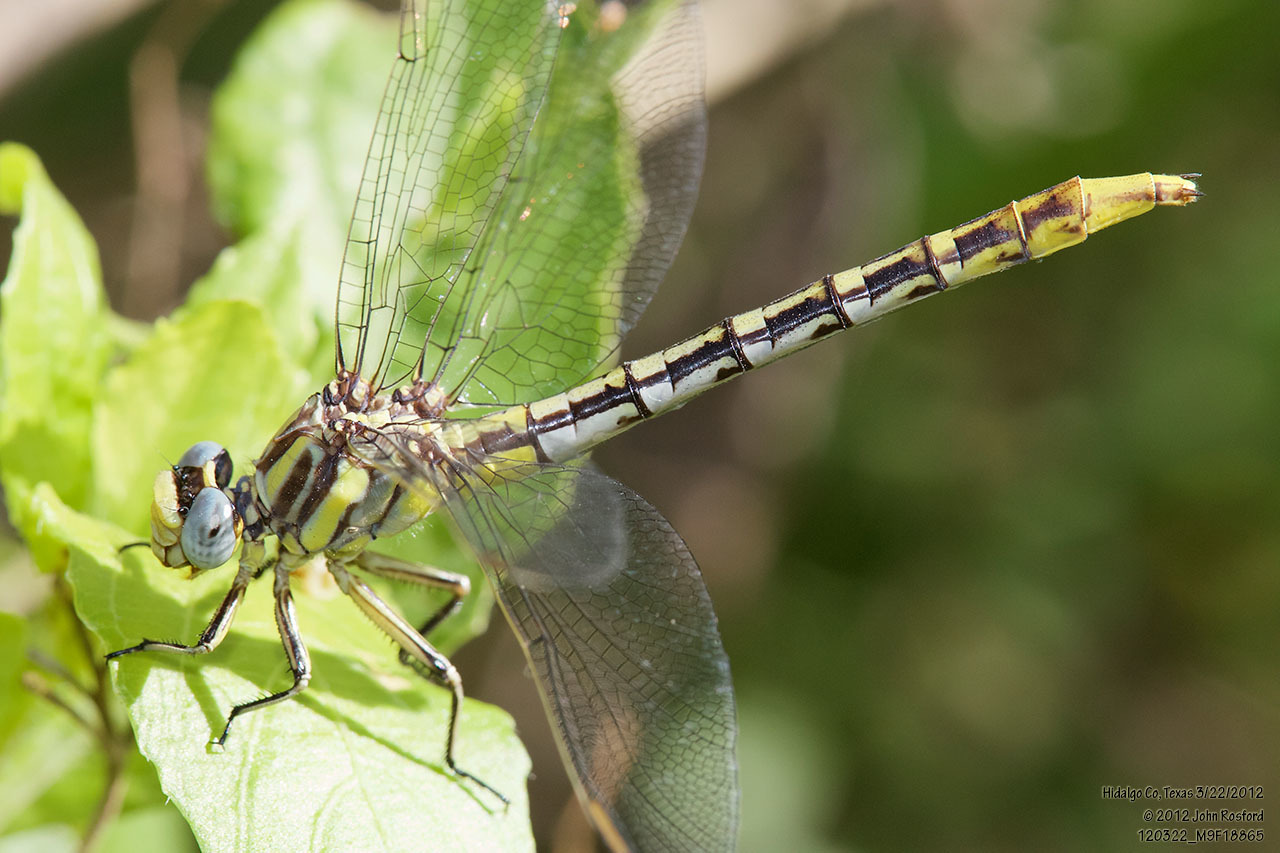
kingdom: Animalia
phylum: Arthropoda
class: Insecta
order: Odonata
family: Gomphidae
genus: Phanogomphus
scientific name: Phanogomphus militaris
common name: Sulphur-tipped clubtail
